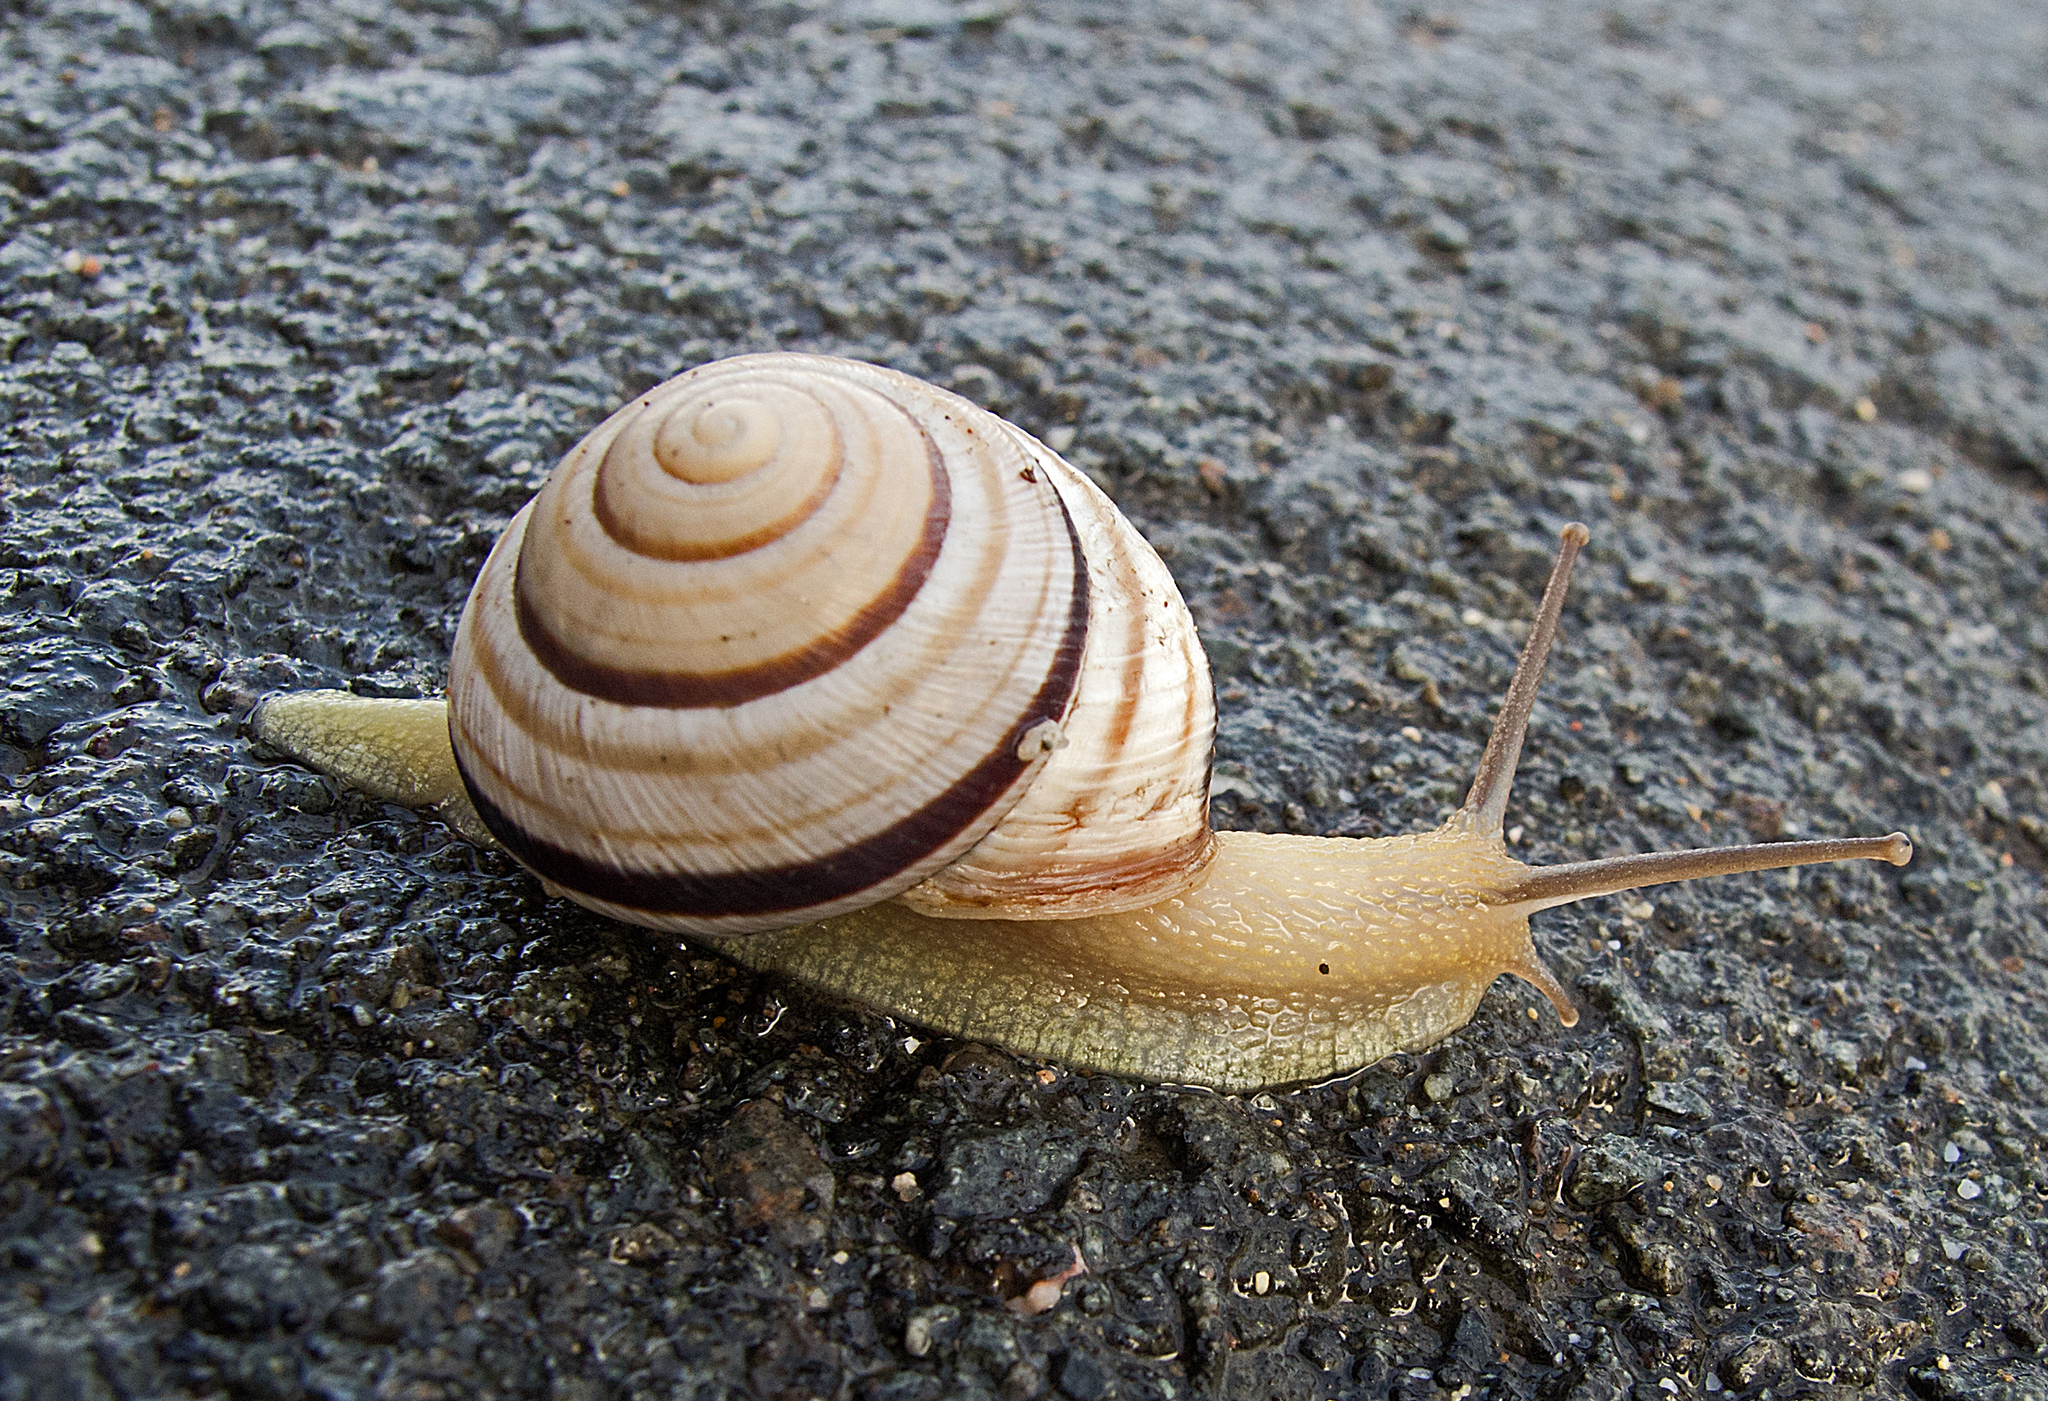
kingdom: Animalia
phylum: Mollusca
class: Gastropoda
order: Stylommatophora
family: Helicidae
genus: Caucasotachea
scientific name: Caucasotachea vindobonensis
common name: European helicid land snail
